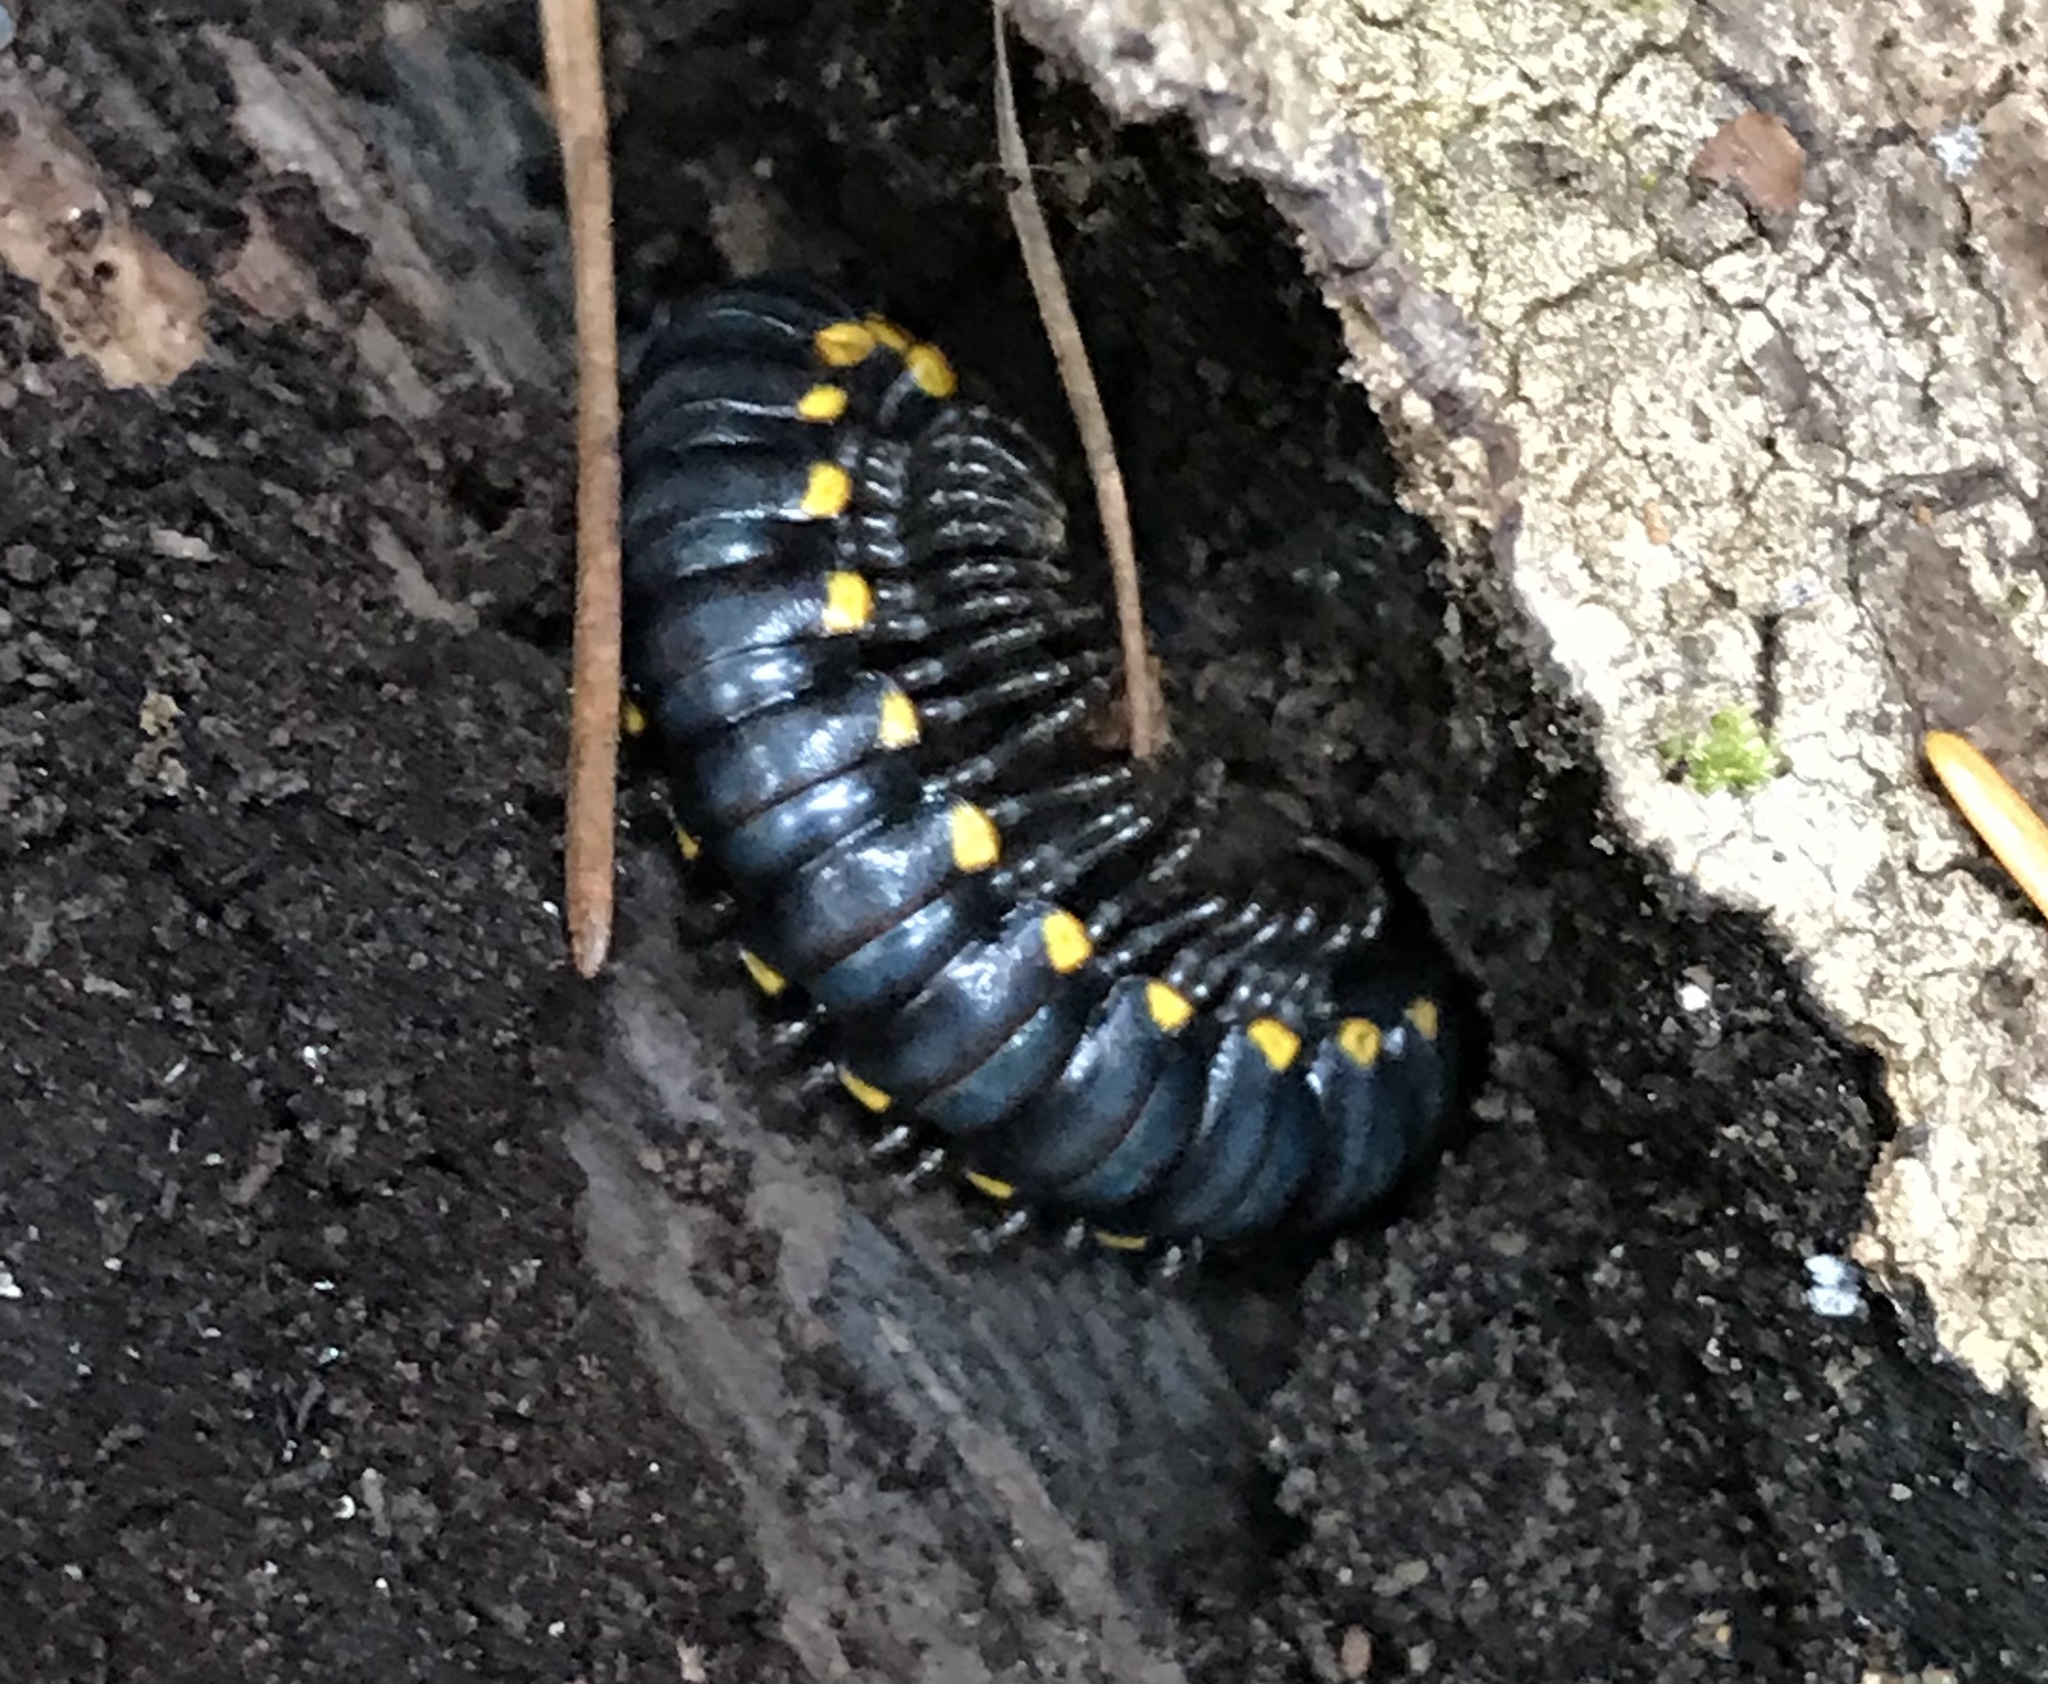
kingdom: Animalia
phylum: Arthropoda
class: Diplopoda
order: Polydesmida
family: Xystodesmidae
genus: Harpaphe
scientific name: Harpaphe haydeniana
